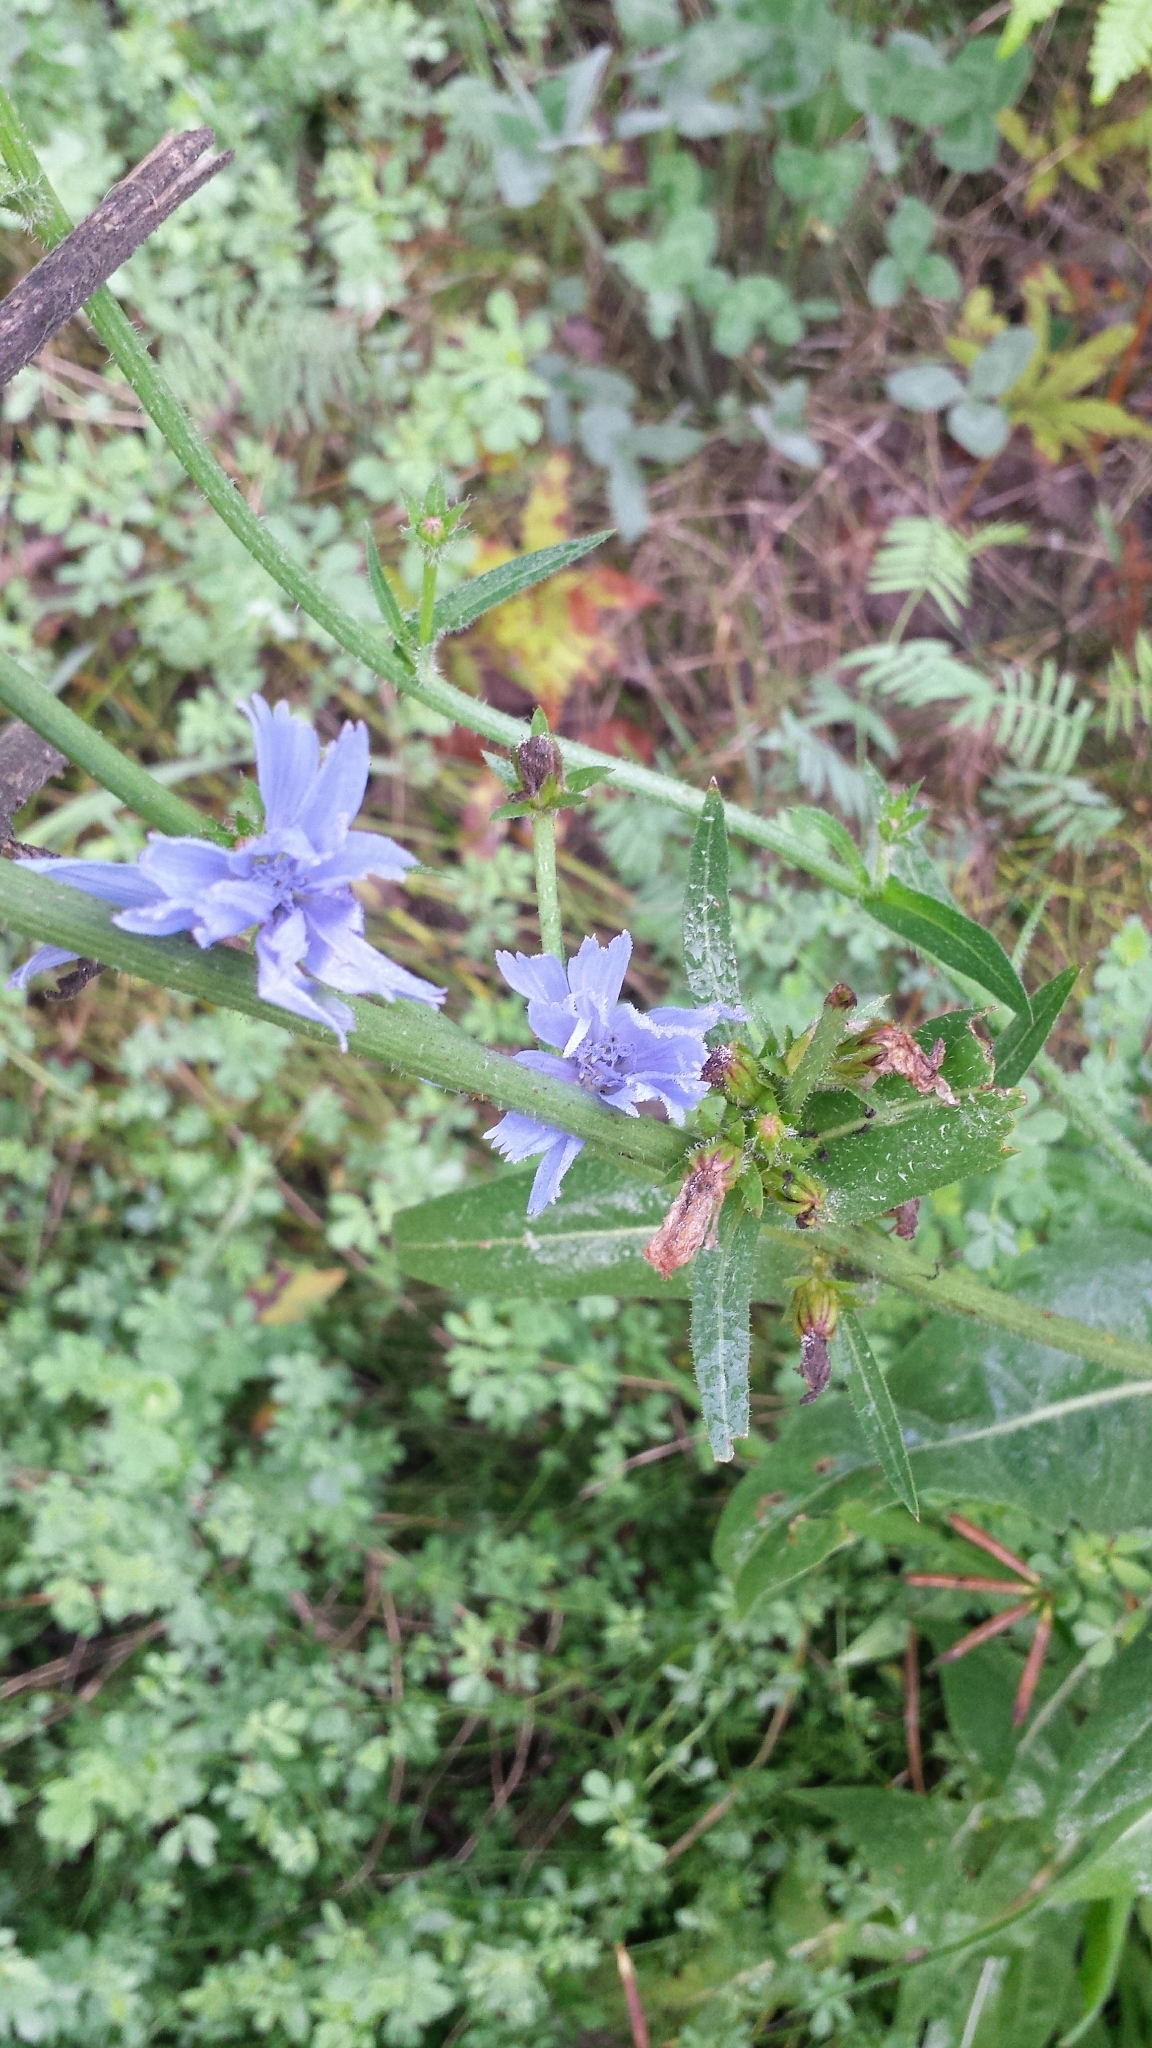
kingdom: Plantae
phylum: Tracheophyta
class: Magnoliopsida
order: Asterales
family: Asteraceae
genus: Cichorium
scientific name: Cichorium intybus
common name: Chicory
